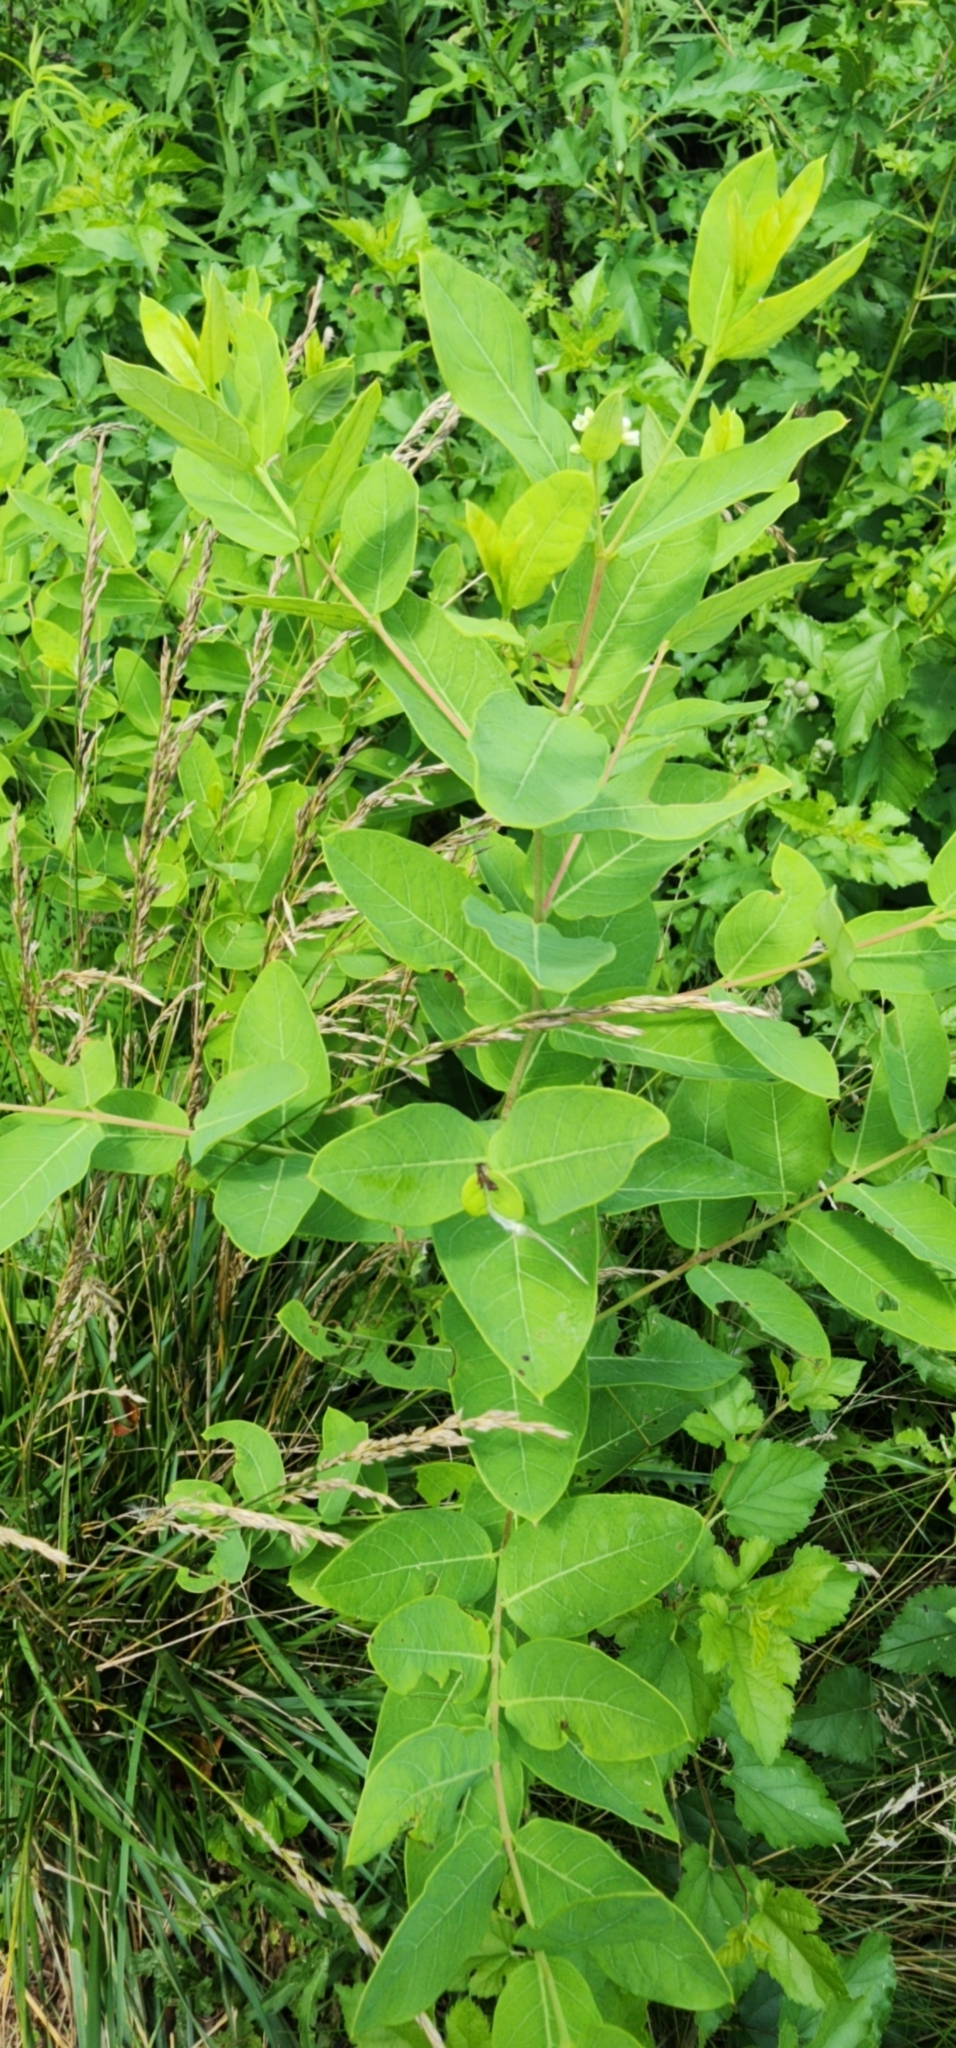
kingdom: Plantae
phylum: Tracheophyta
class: Magnoliopsida
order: Gentianales
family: Apocynaceae
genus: Apocynum
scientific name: Apocynum cannabinum
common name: Hemp dogbane
